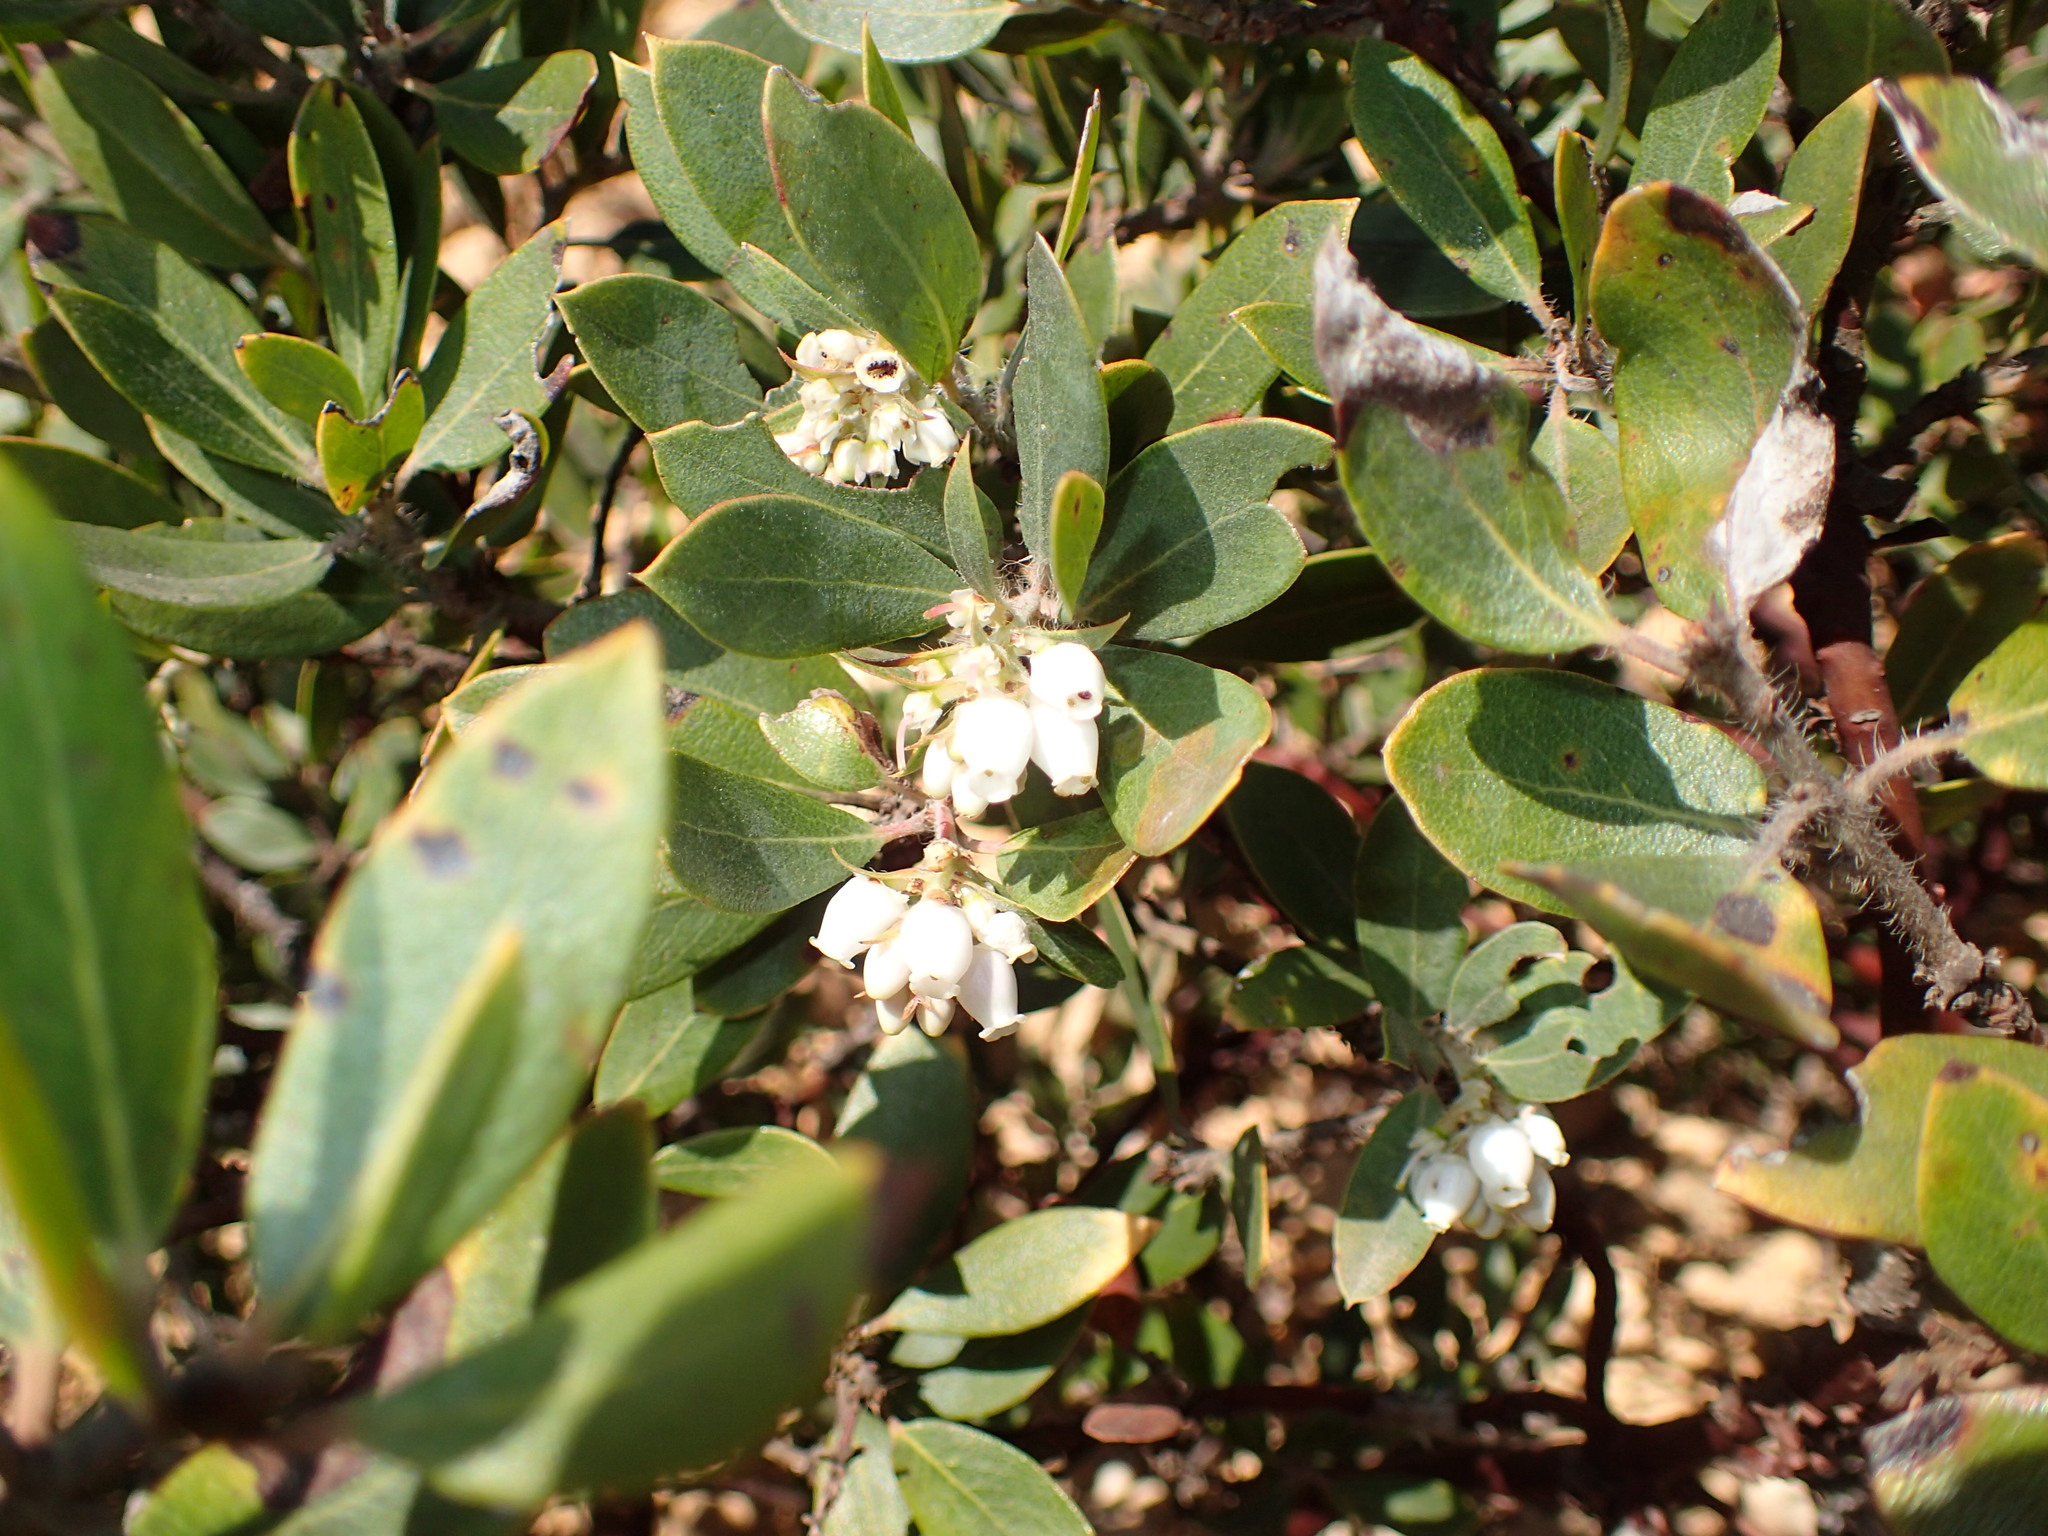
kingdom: Plantae
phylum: Tracheophyta
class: Magnoliopsida
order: Ericales
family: Ericaceae
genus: Arctostaphylos
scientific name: Arctostaphylos crustacea
